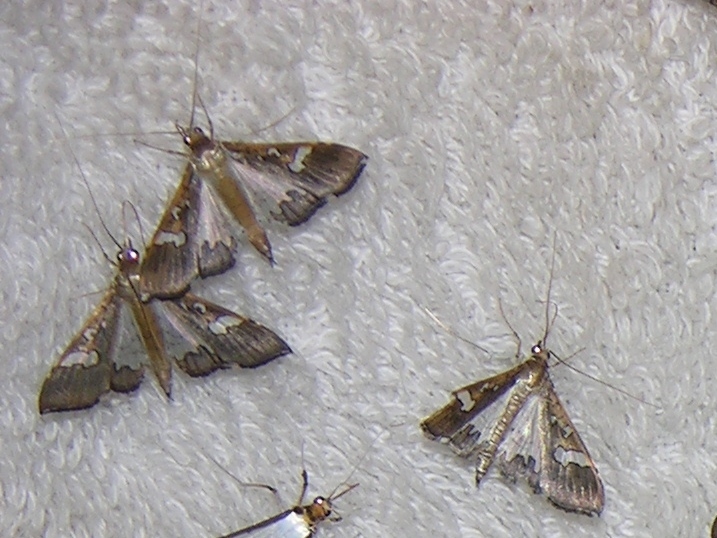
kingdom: Animalia
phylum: Arthropoda
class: Insecta
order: Lepidoptera
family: Crambidae
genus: Maruca
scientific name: Maruca vitrata
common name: Maruca pod borer
